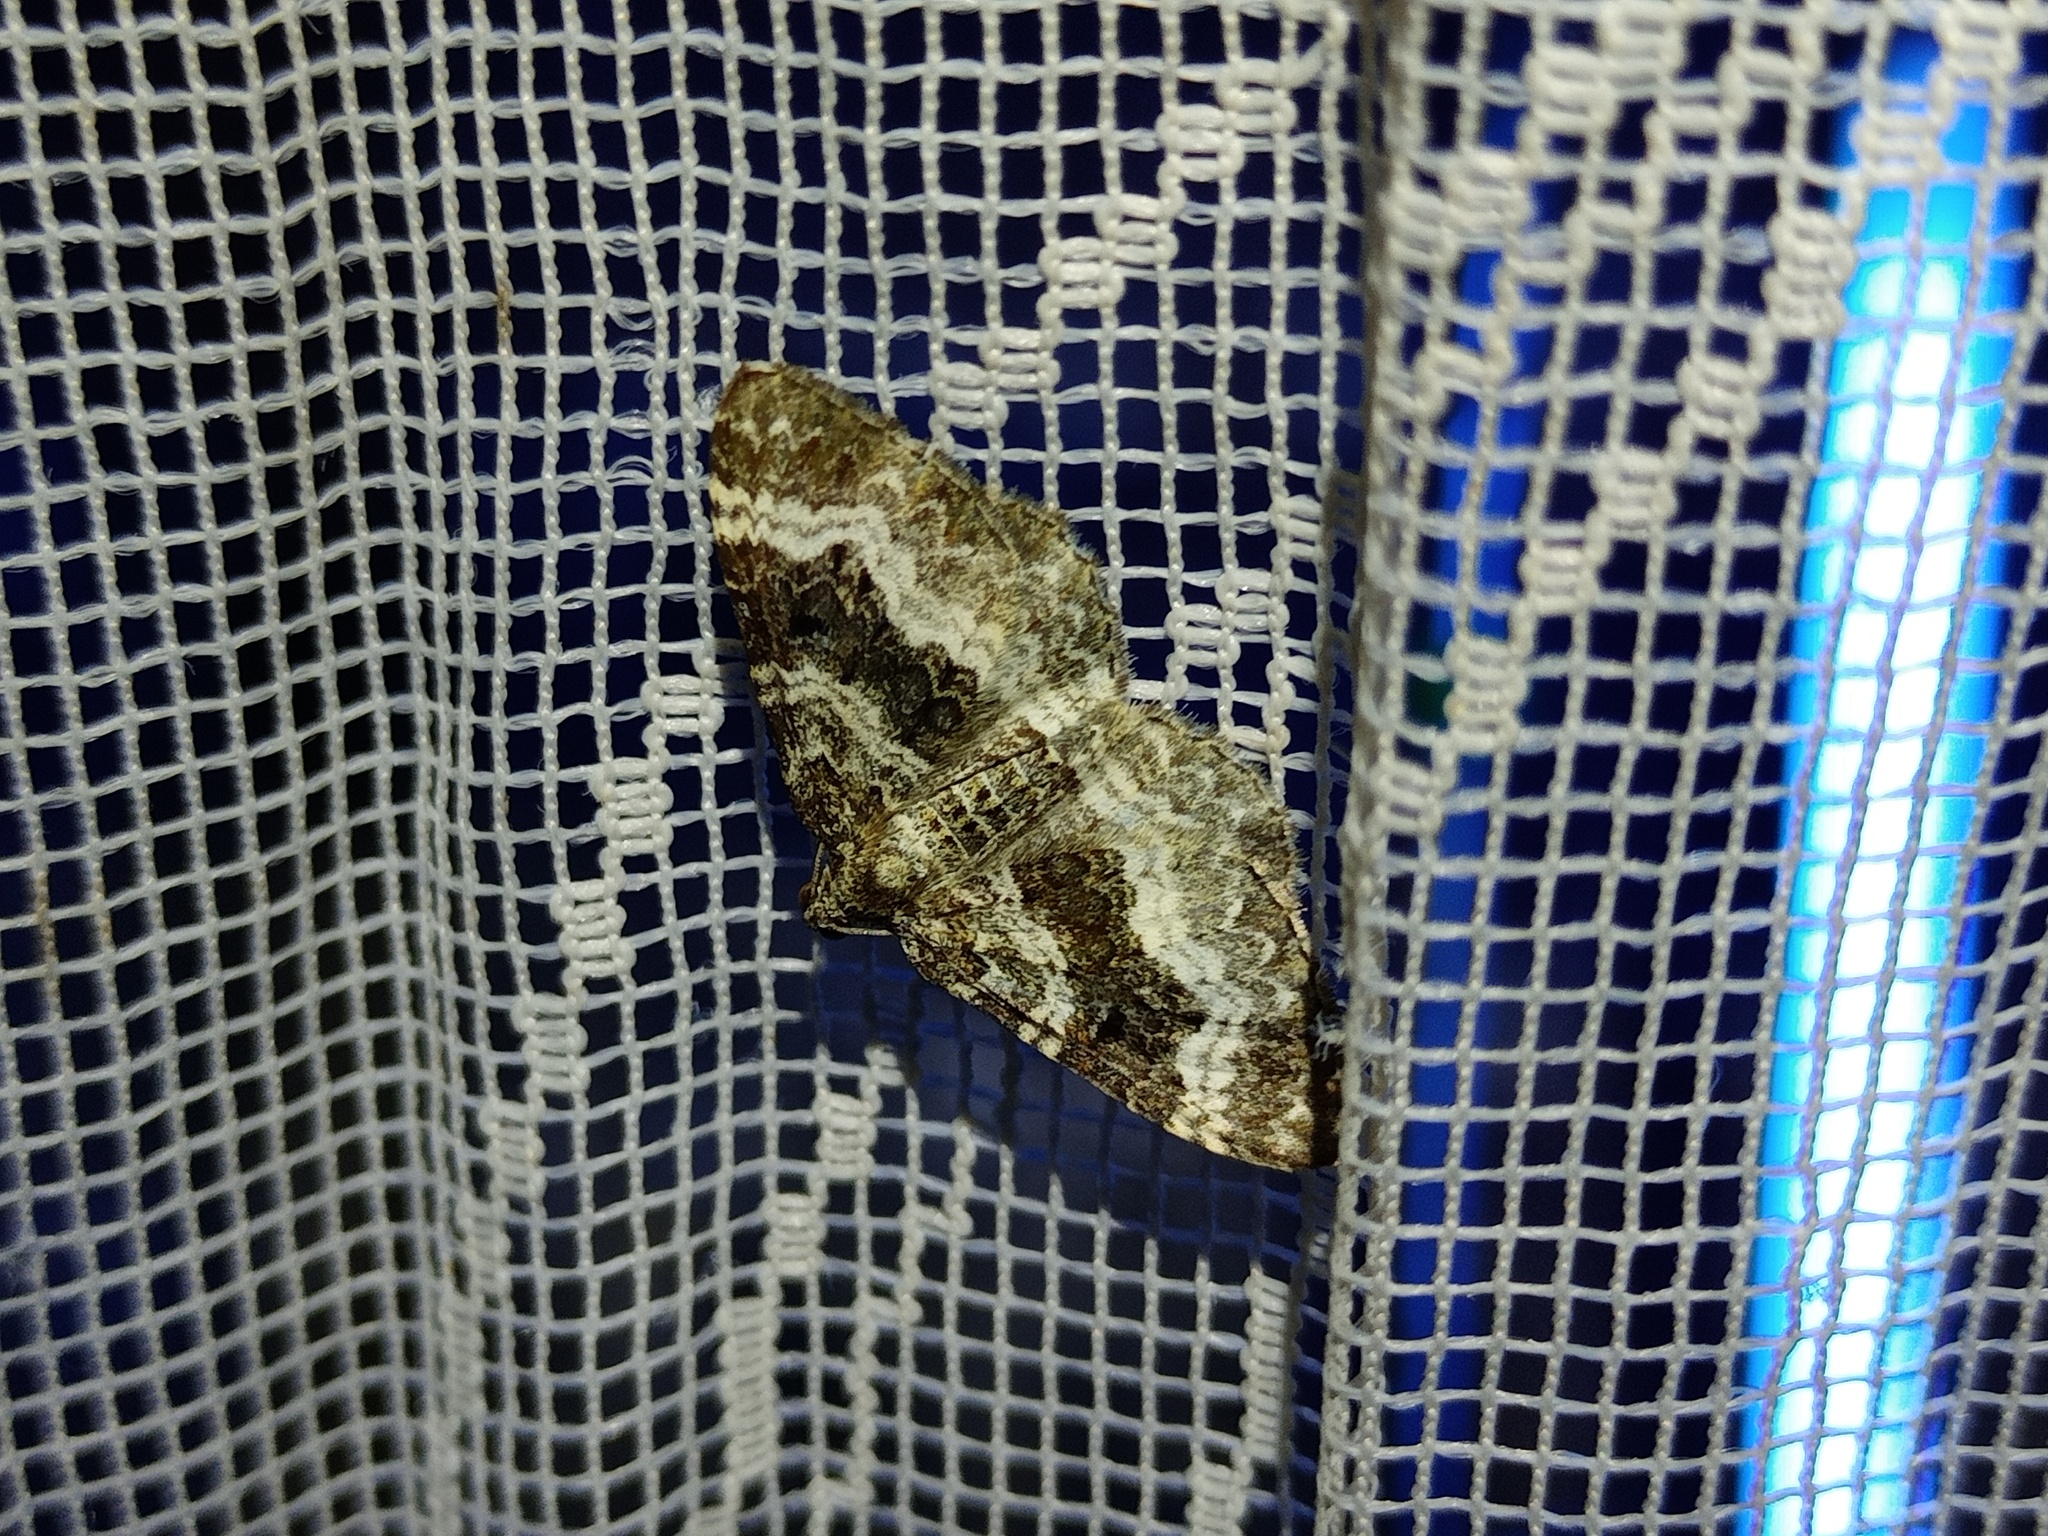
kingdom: Animalia
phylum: Arthropoda
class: Insecta
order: Lepidoptera
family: Geometridae
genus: Epirrhoe
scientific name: Epirrhoe alternata
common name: Common carpet
